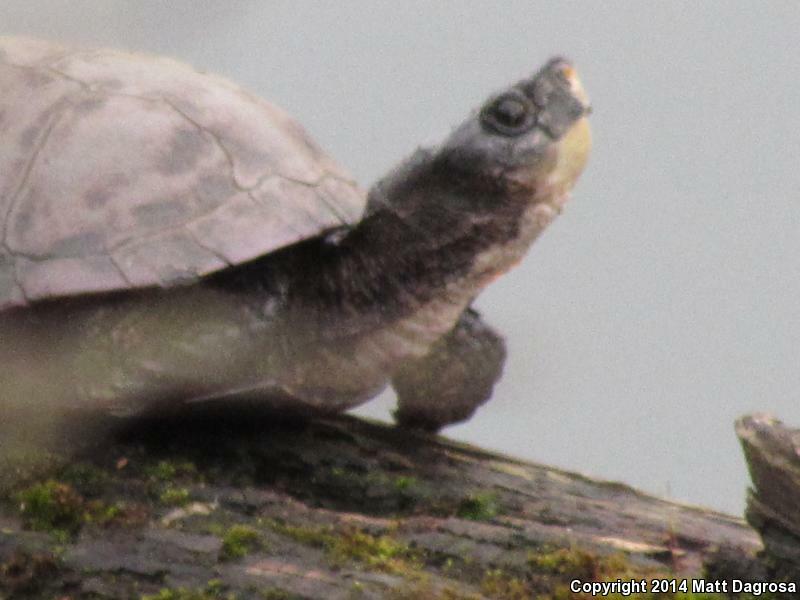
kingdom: Animalia
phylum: Chordata
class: Testudines
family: Emydidae
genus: Actinemys
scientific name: Actinemys marmorata
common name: Western pond turtle
